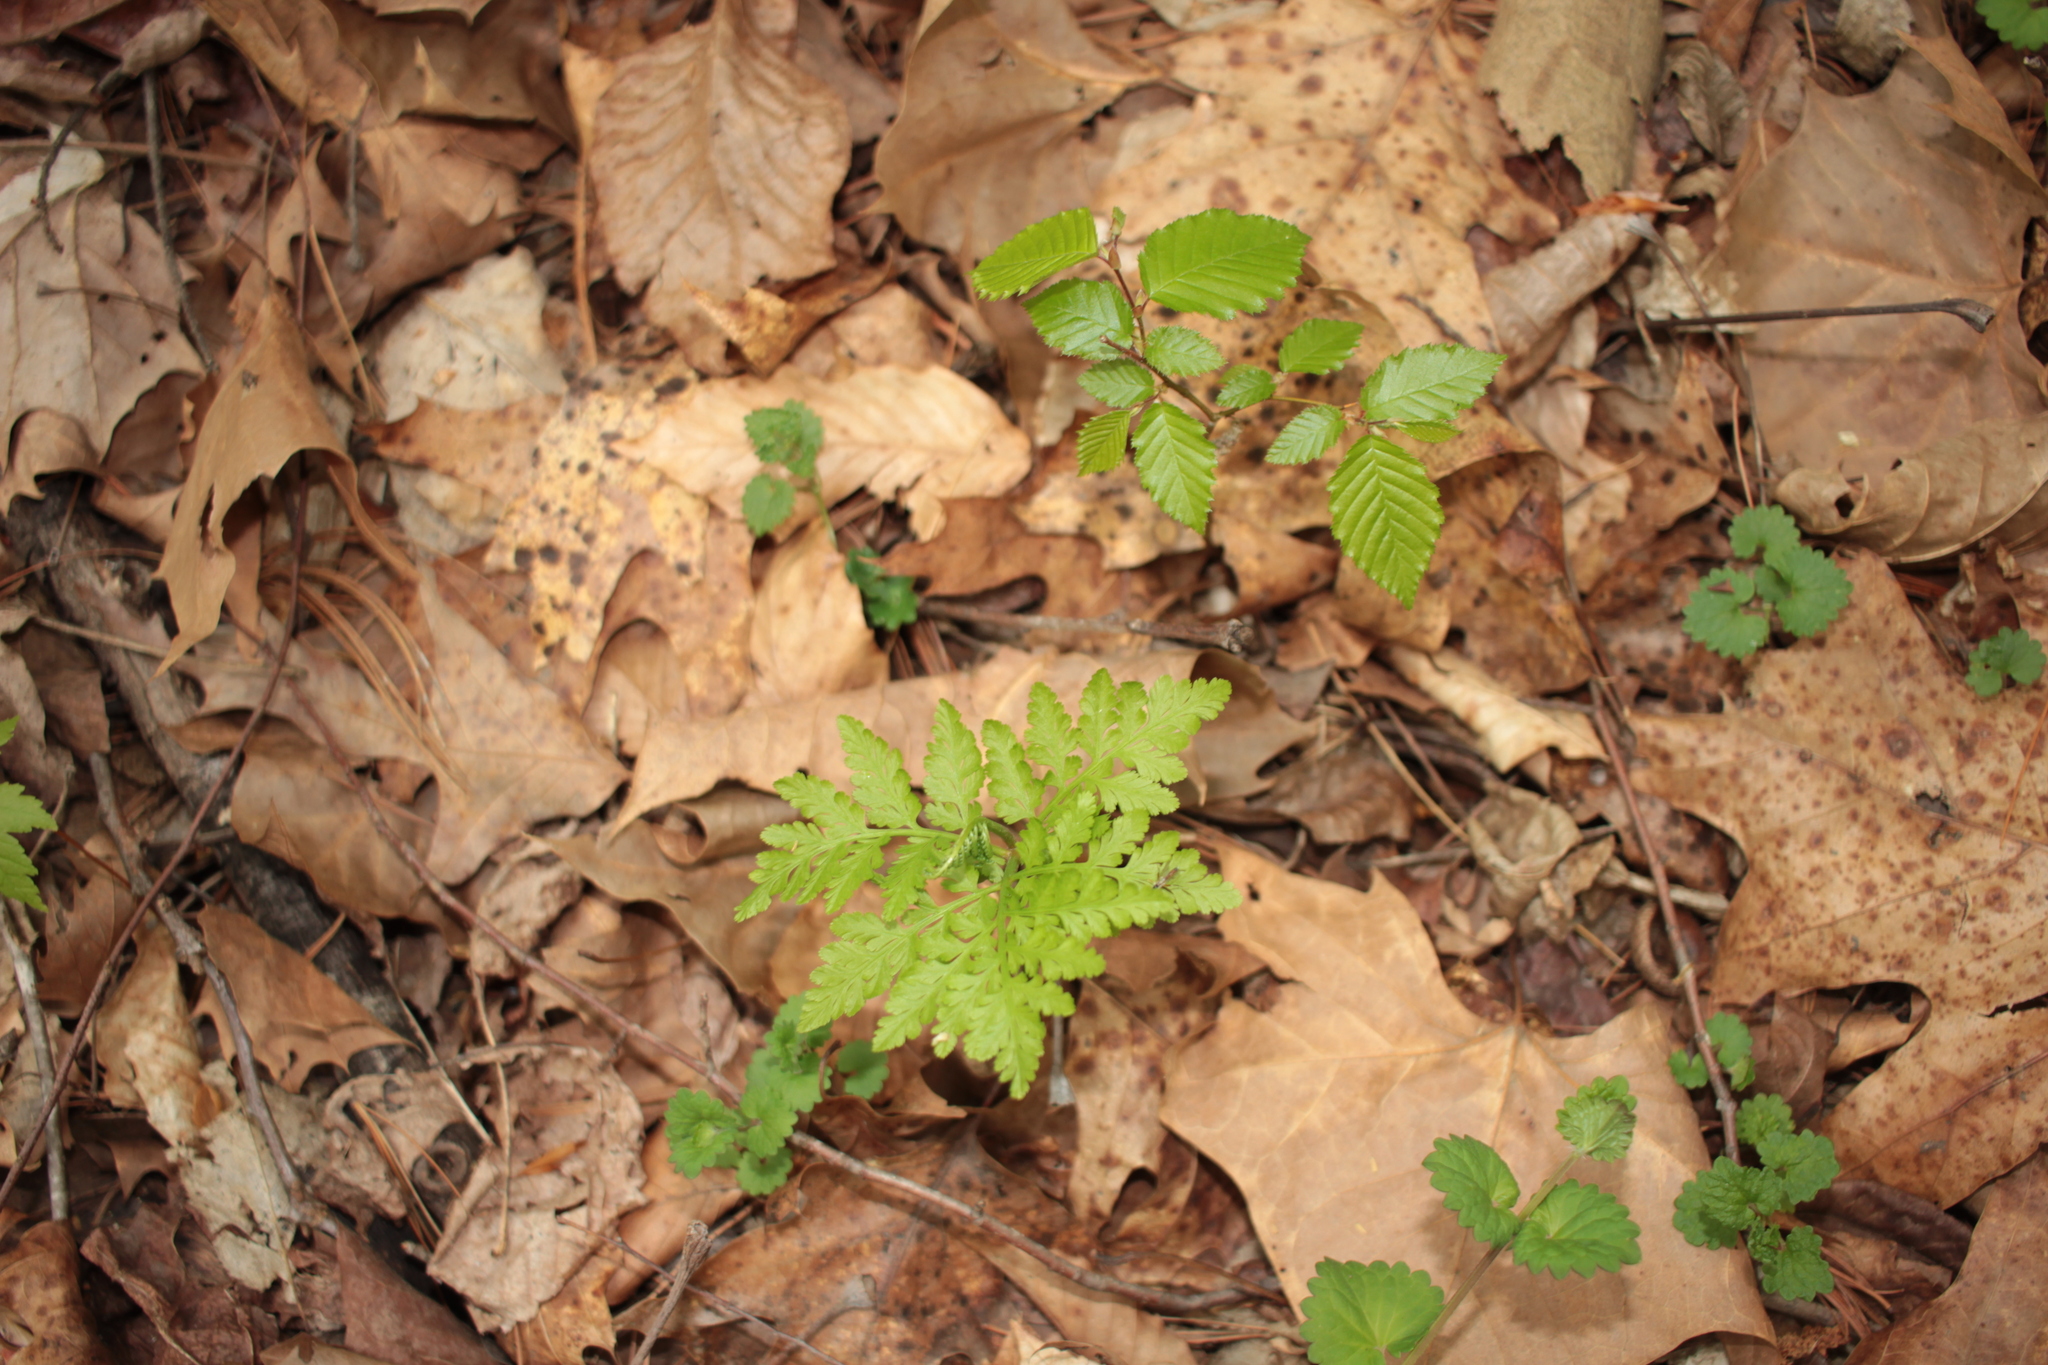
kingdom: Plantae
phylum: Tracheophyta
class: Polypodiopsida
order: Ophioglossales
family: Ophioglossaceae
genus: Botrypus
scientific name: Botrypus virginianus
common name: Common grapefern
